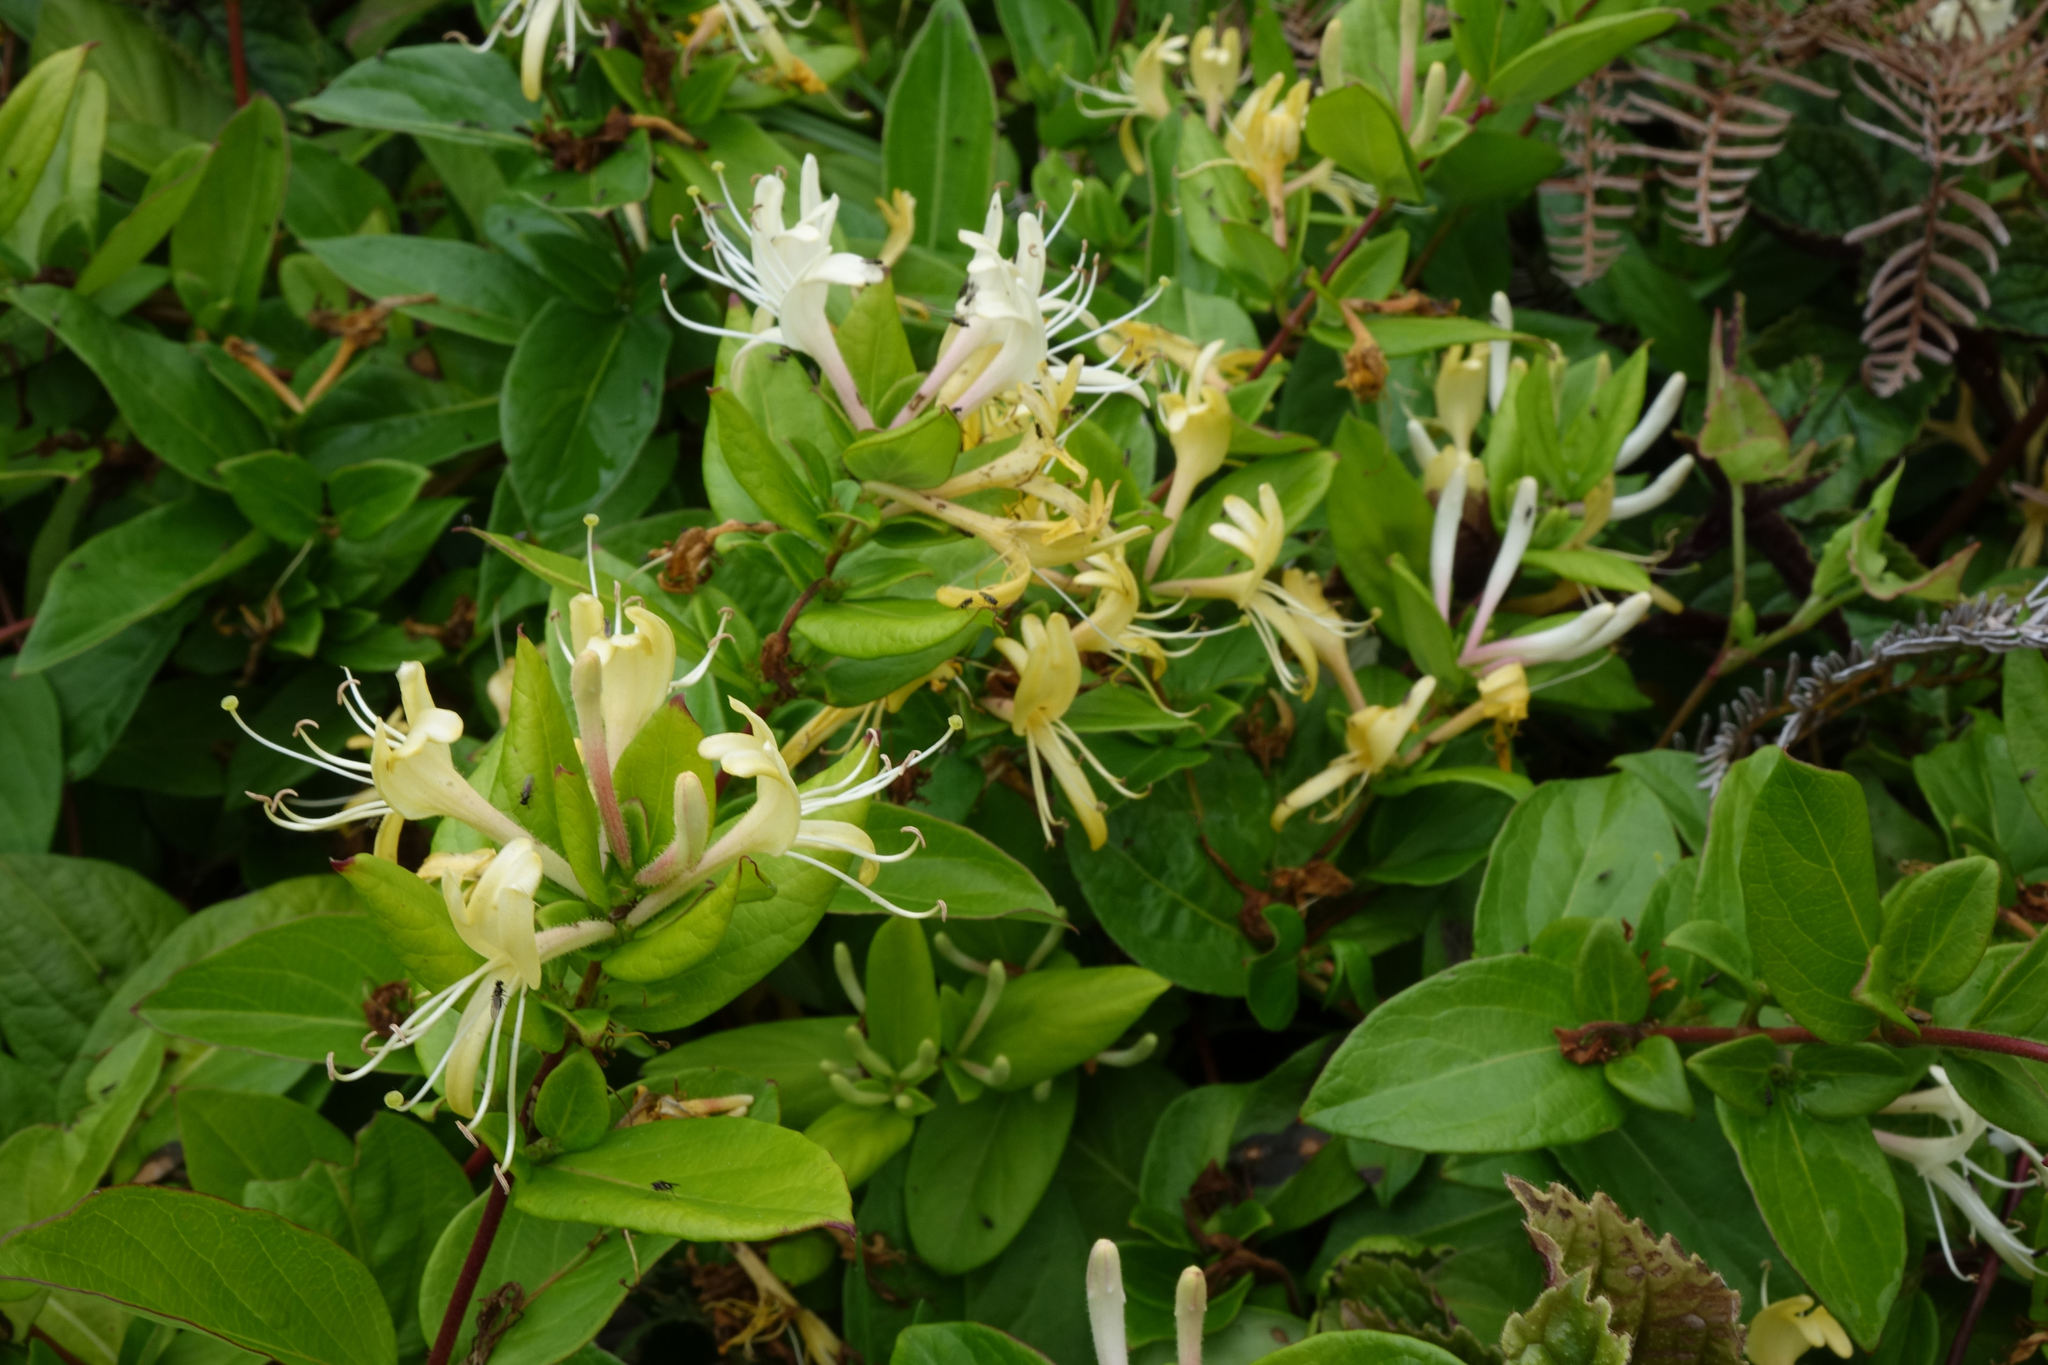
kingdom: Plantae
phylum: Tracheophyta
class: Magnoliopsida
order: Dipsacales
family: Caprifoliaceae
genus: Lonicera
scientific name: Lonicera japonica
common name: Japanese honeysuckle
